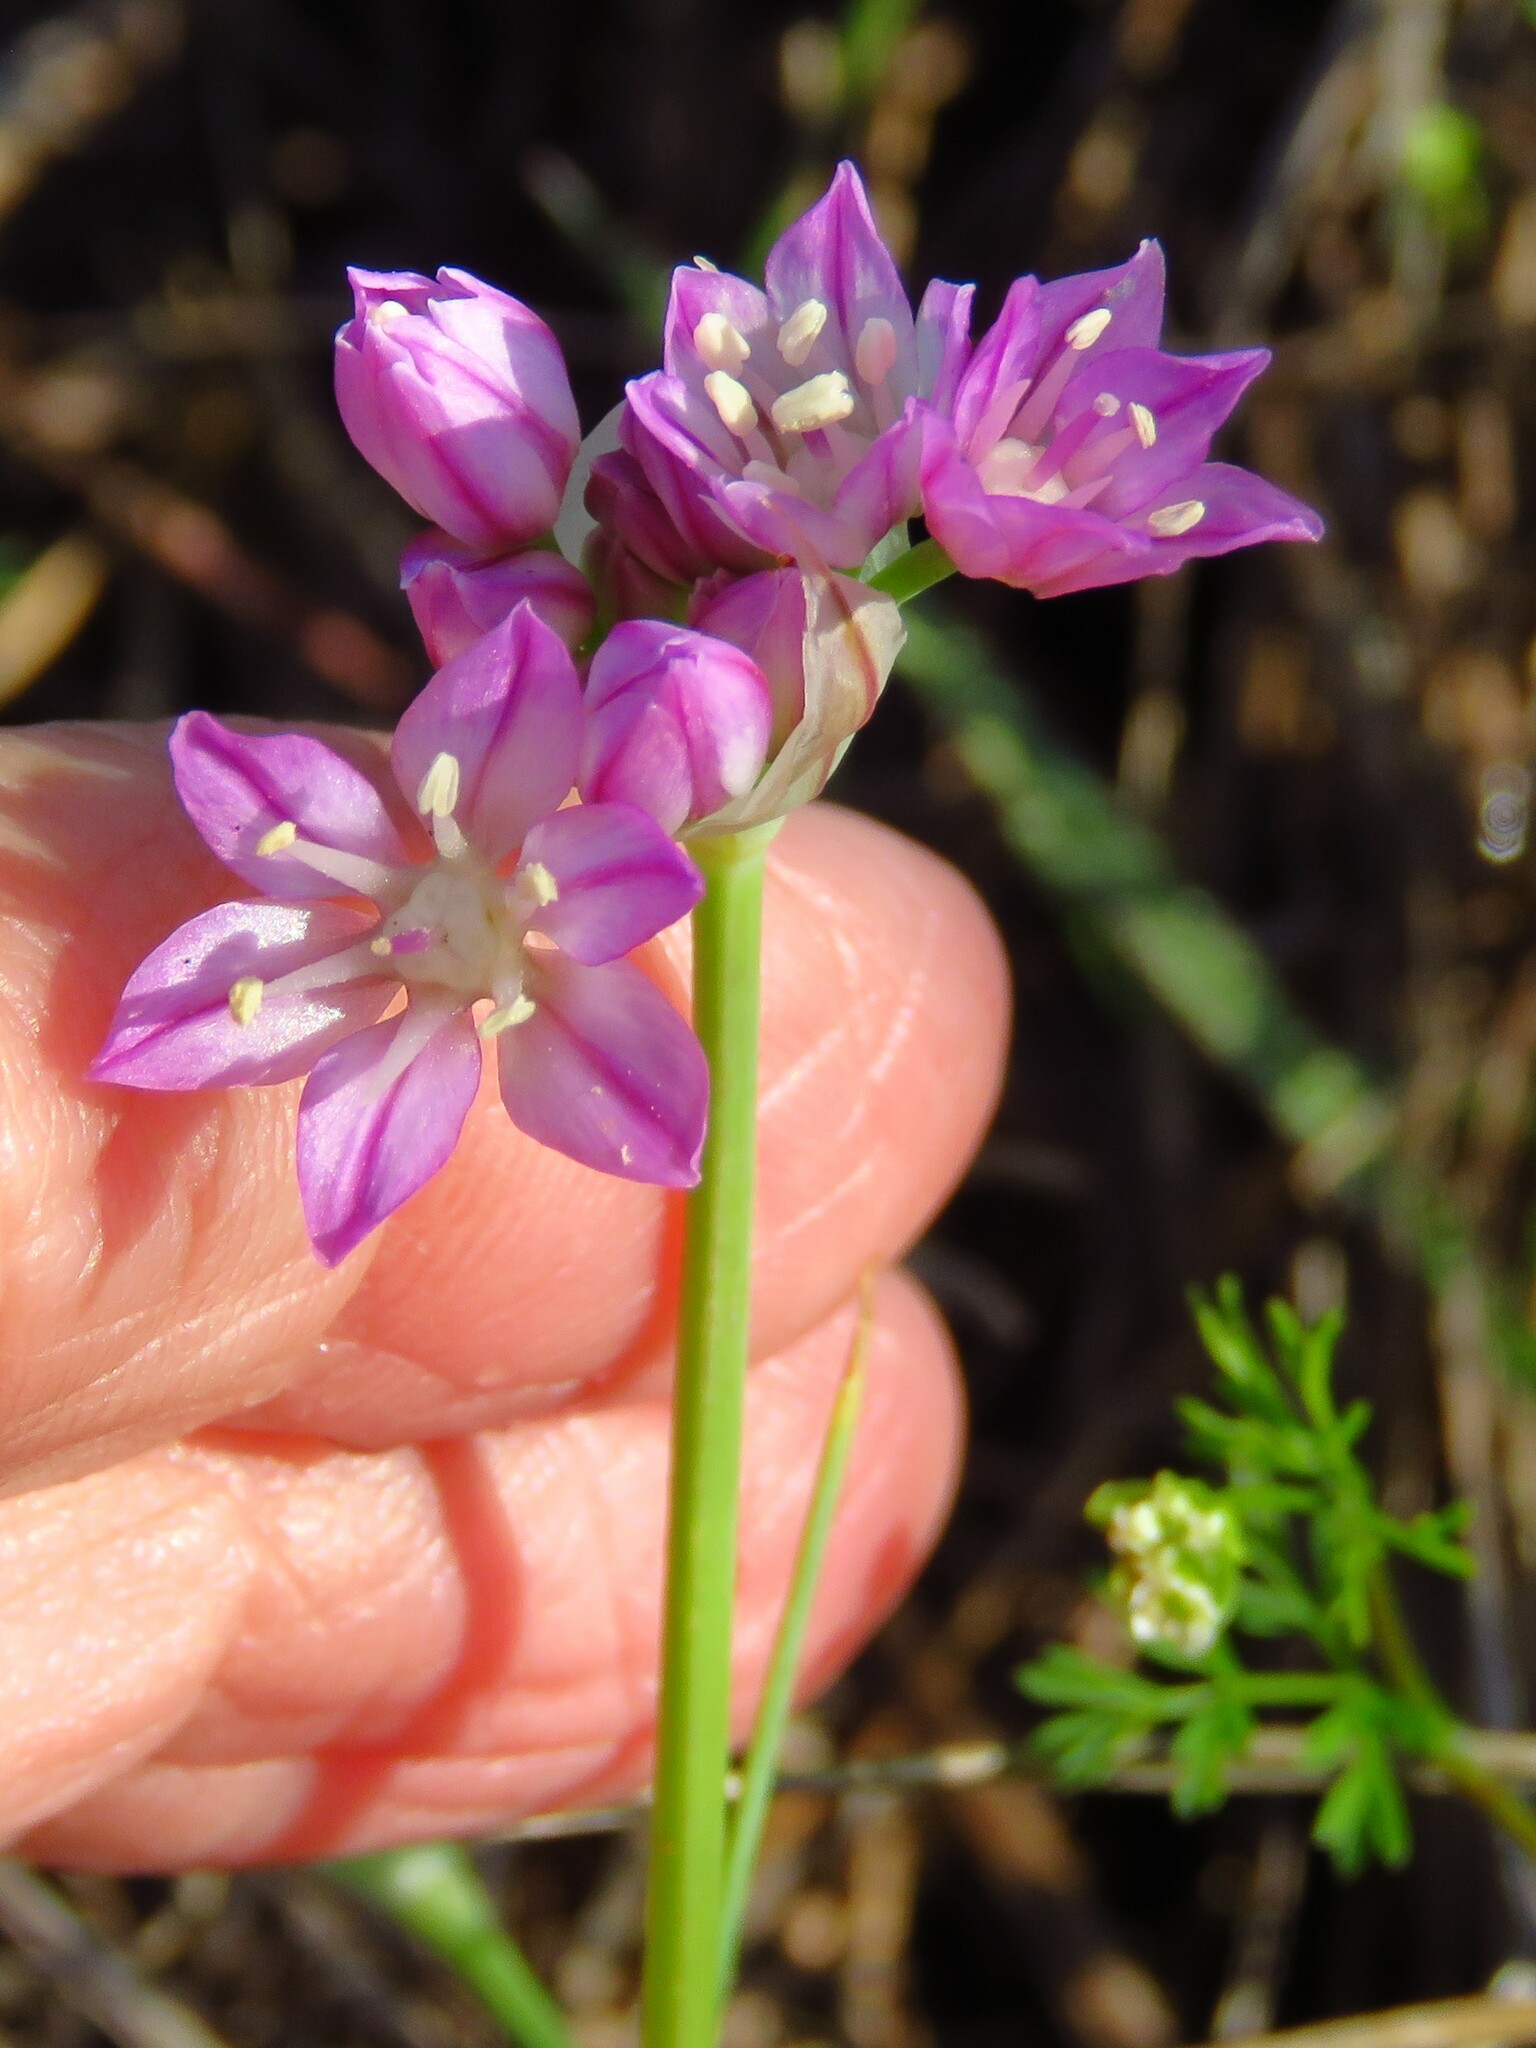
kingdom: Plantae
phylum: Tracheophyta
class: Liliopsida
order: Asparagales
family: Amaryllidaceae
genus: Allium
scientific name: Allium drummondii
